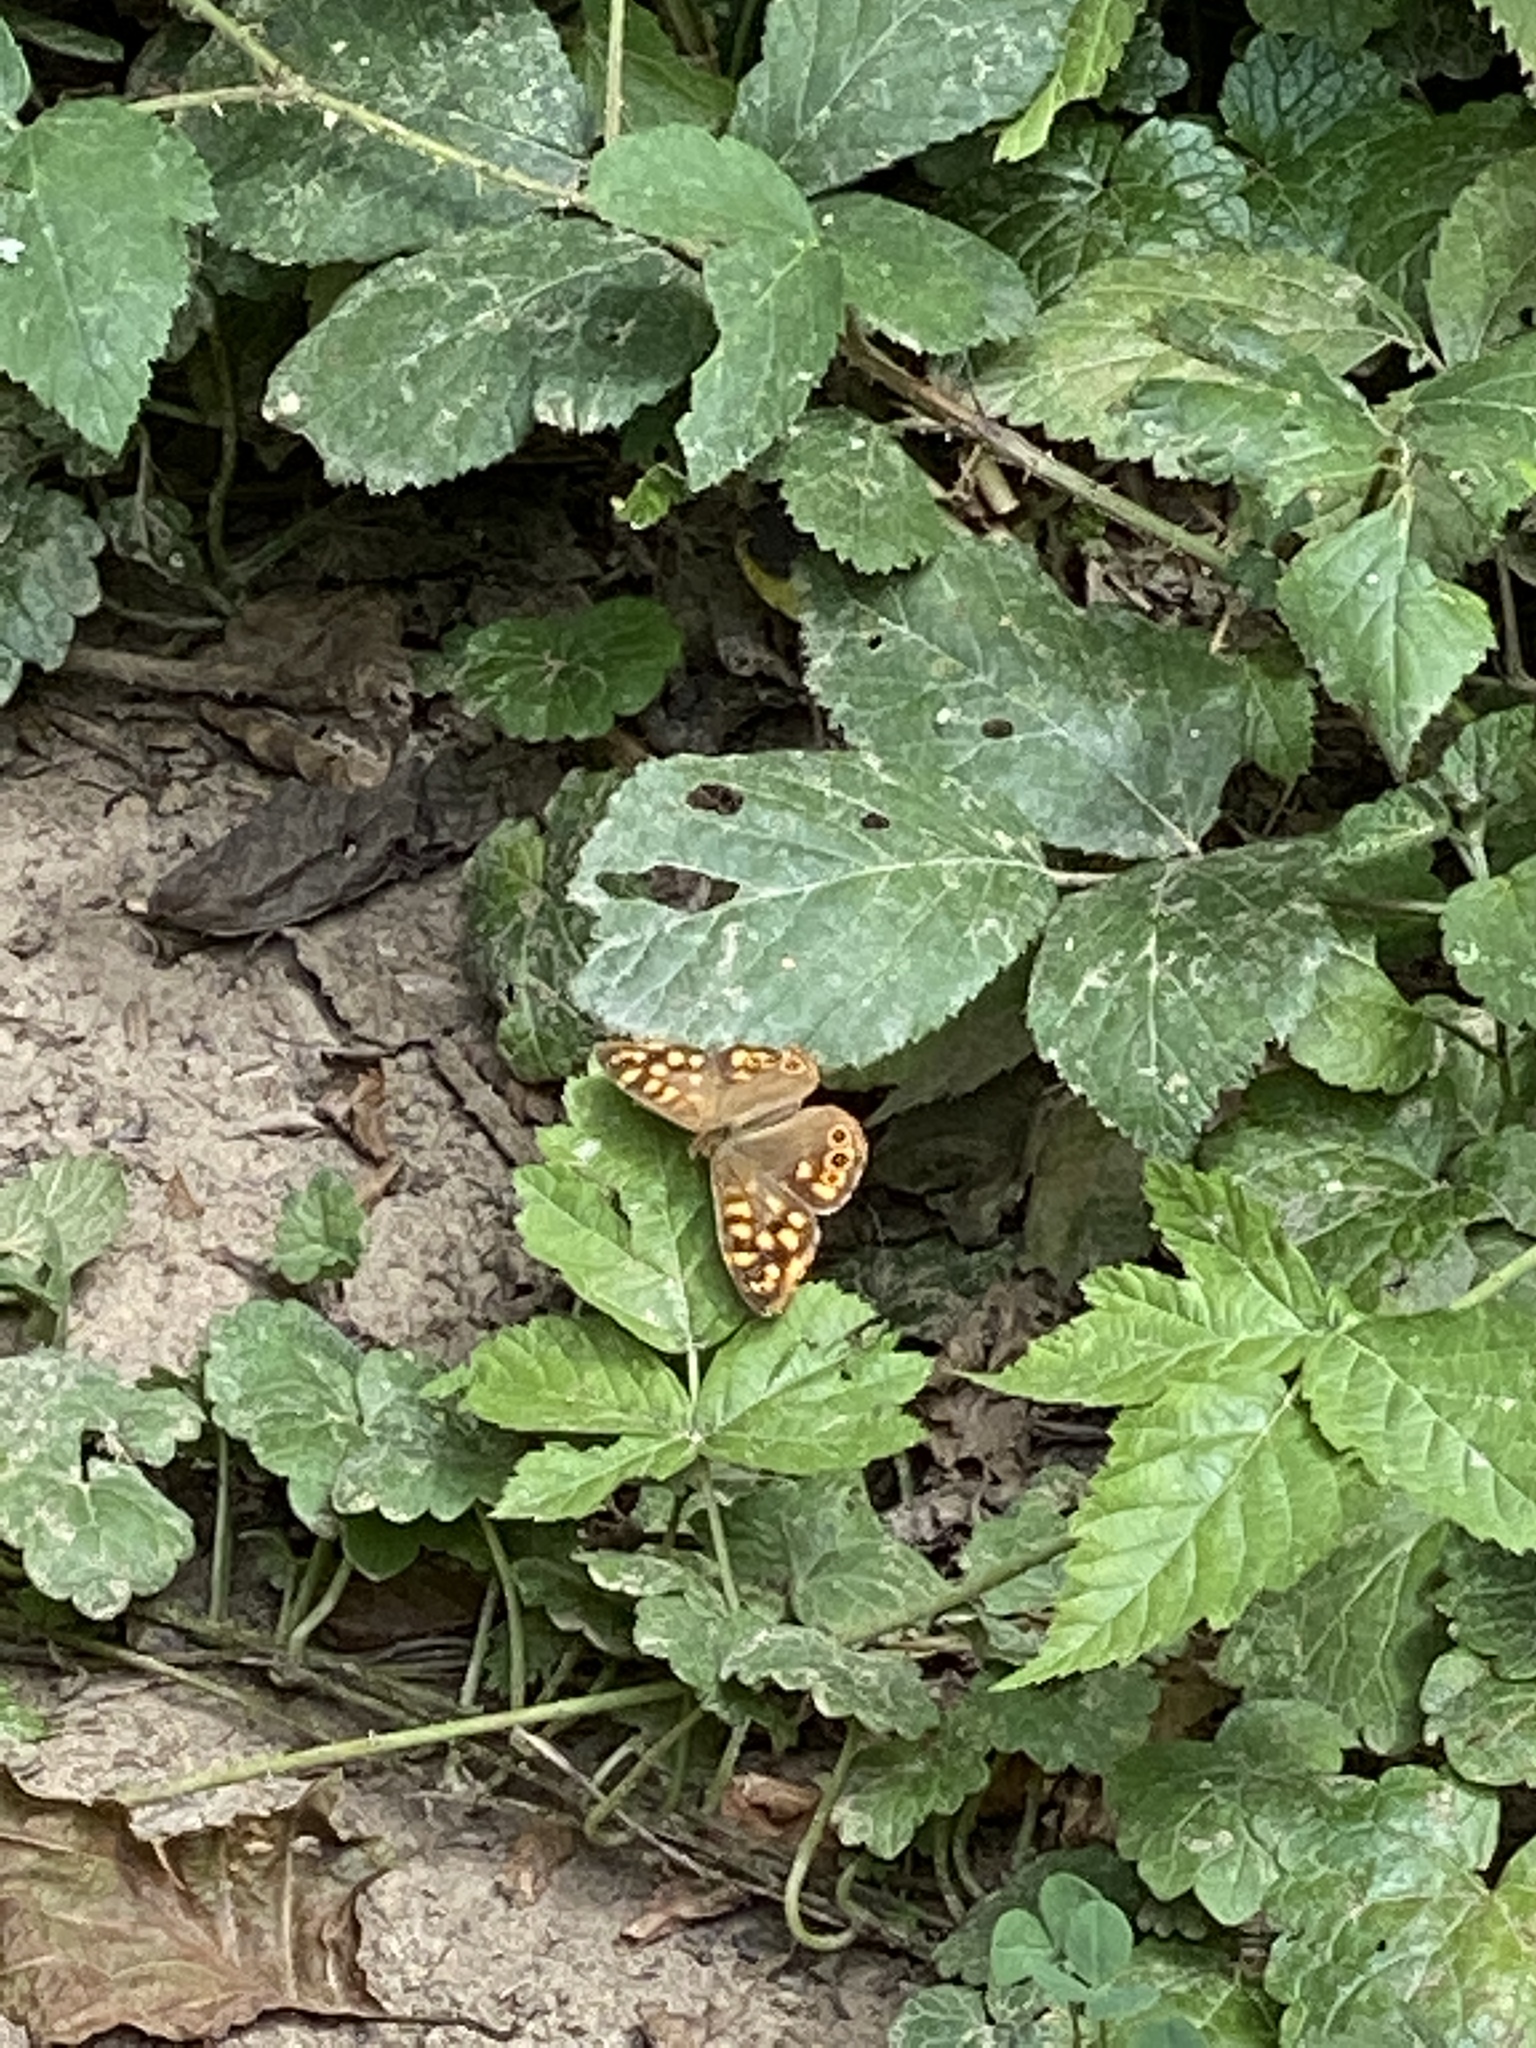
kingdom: Animalia
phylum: Arthropoda
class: Insecta
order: Lepidoptera
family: Nymphalidae
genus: Pararge
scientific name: Pararge aegeria
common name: Speckled wood
